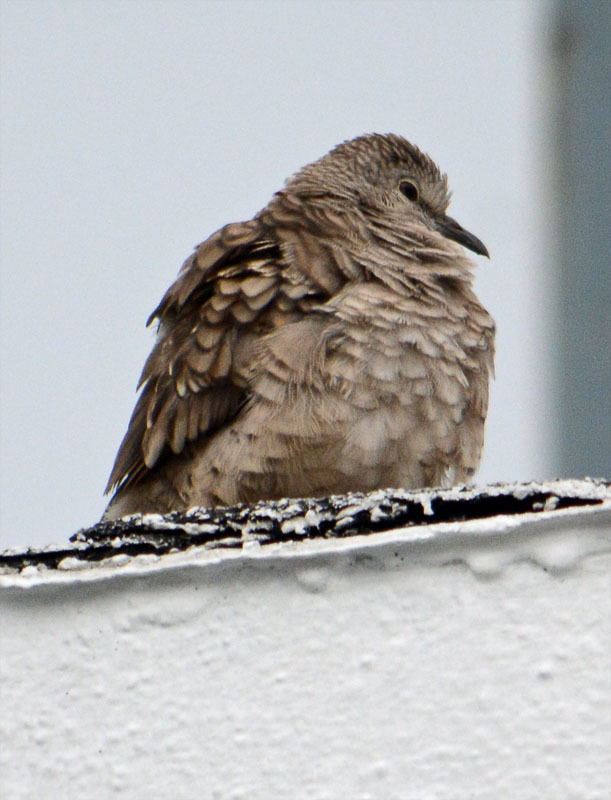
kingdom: Animalia
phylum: Chordata
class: Aves
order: Columbiformes
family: Columbidae
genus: Columbina
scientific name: Columbina inca
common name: Inca dove
